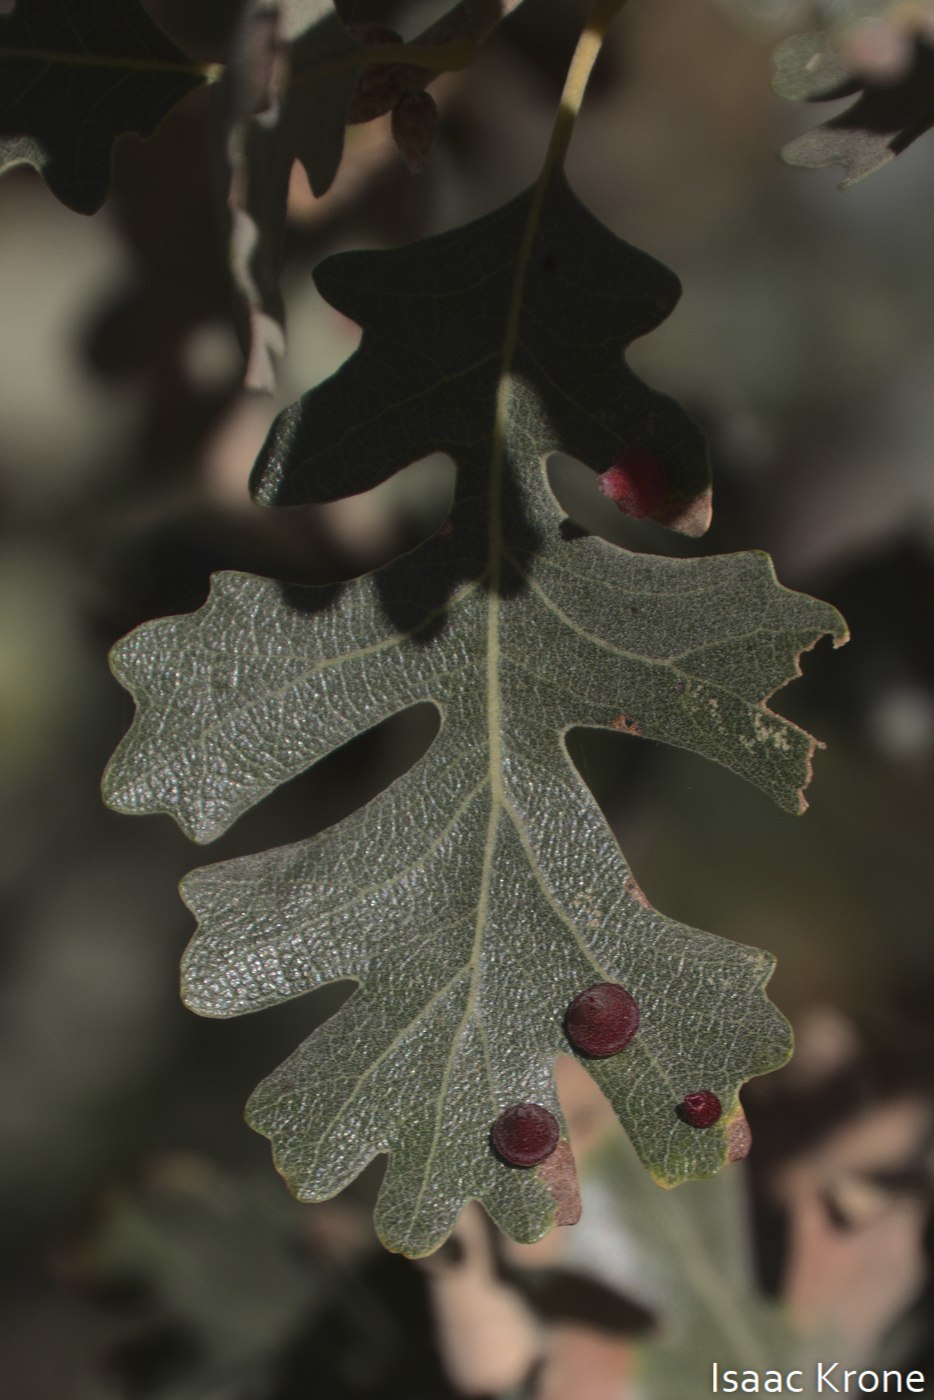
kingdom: Animalia
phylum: Arthropoda
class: Insecta
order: Hymenoptera
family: Cynipidae
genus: Andricus
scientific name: Andricus
